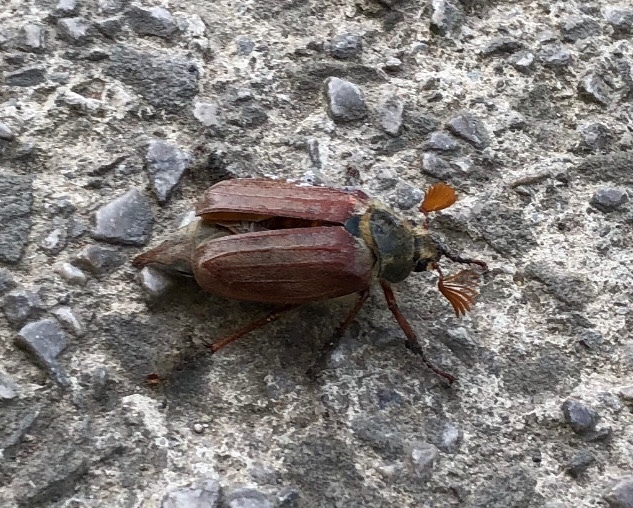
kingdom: Animalia
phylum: Arthropoda
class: Insecta
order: Coleoptera
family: Scarabaeidae
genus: Melolontha
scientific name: Melolontha melolontha
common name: Cockchafer maybeetle
